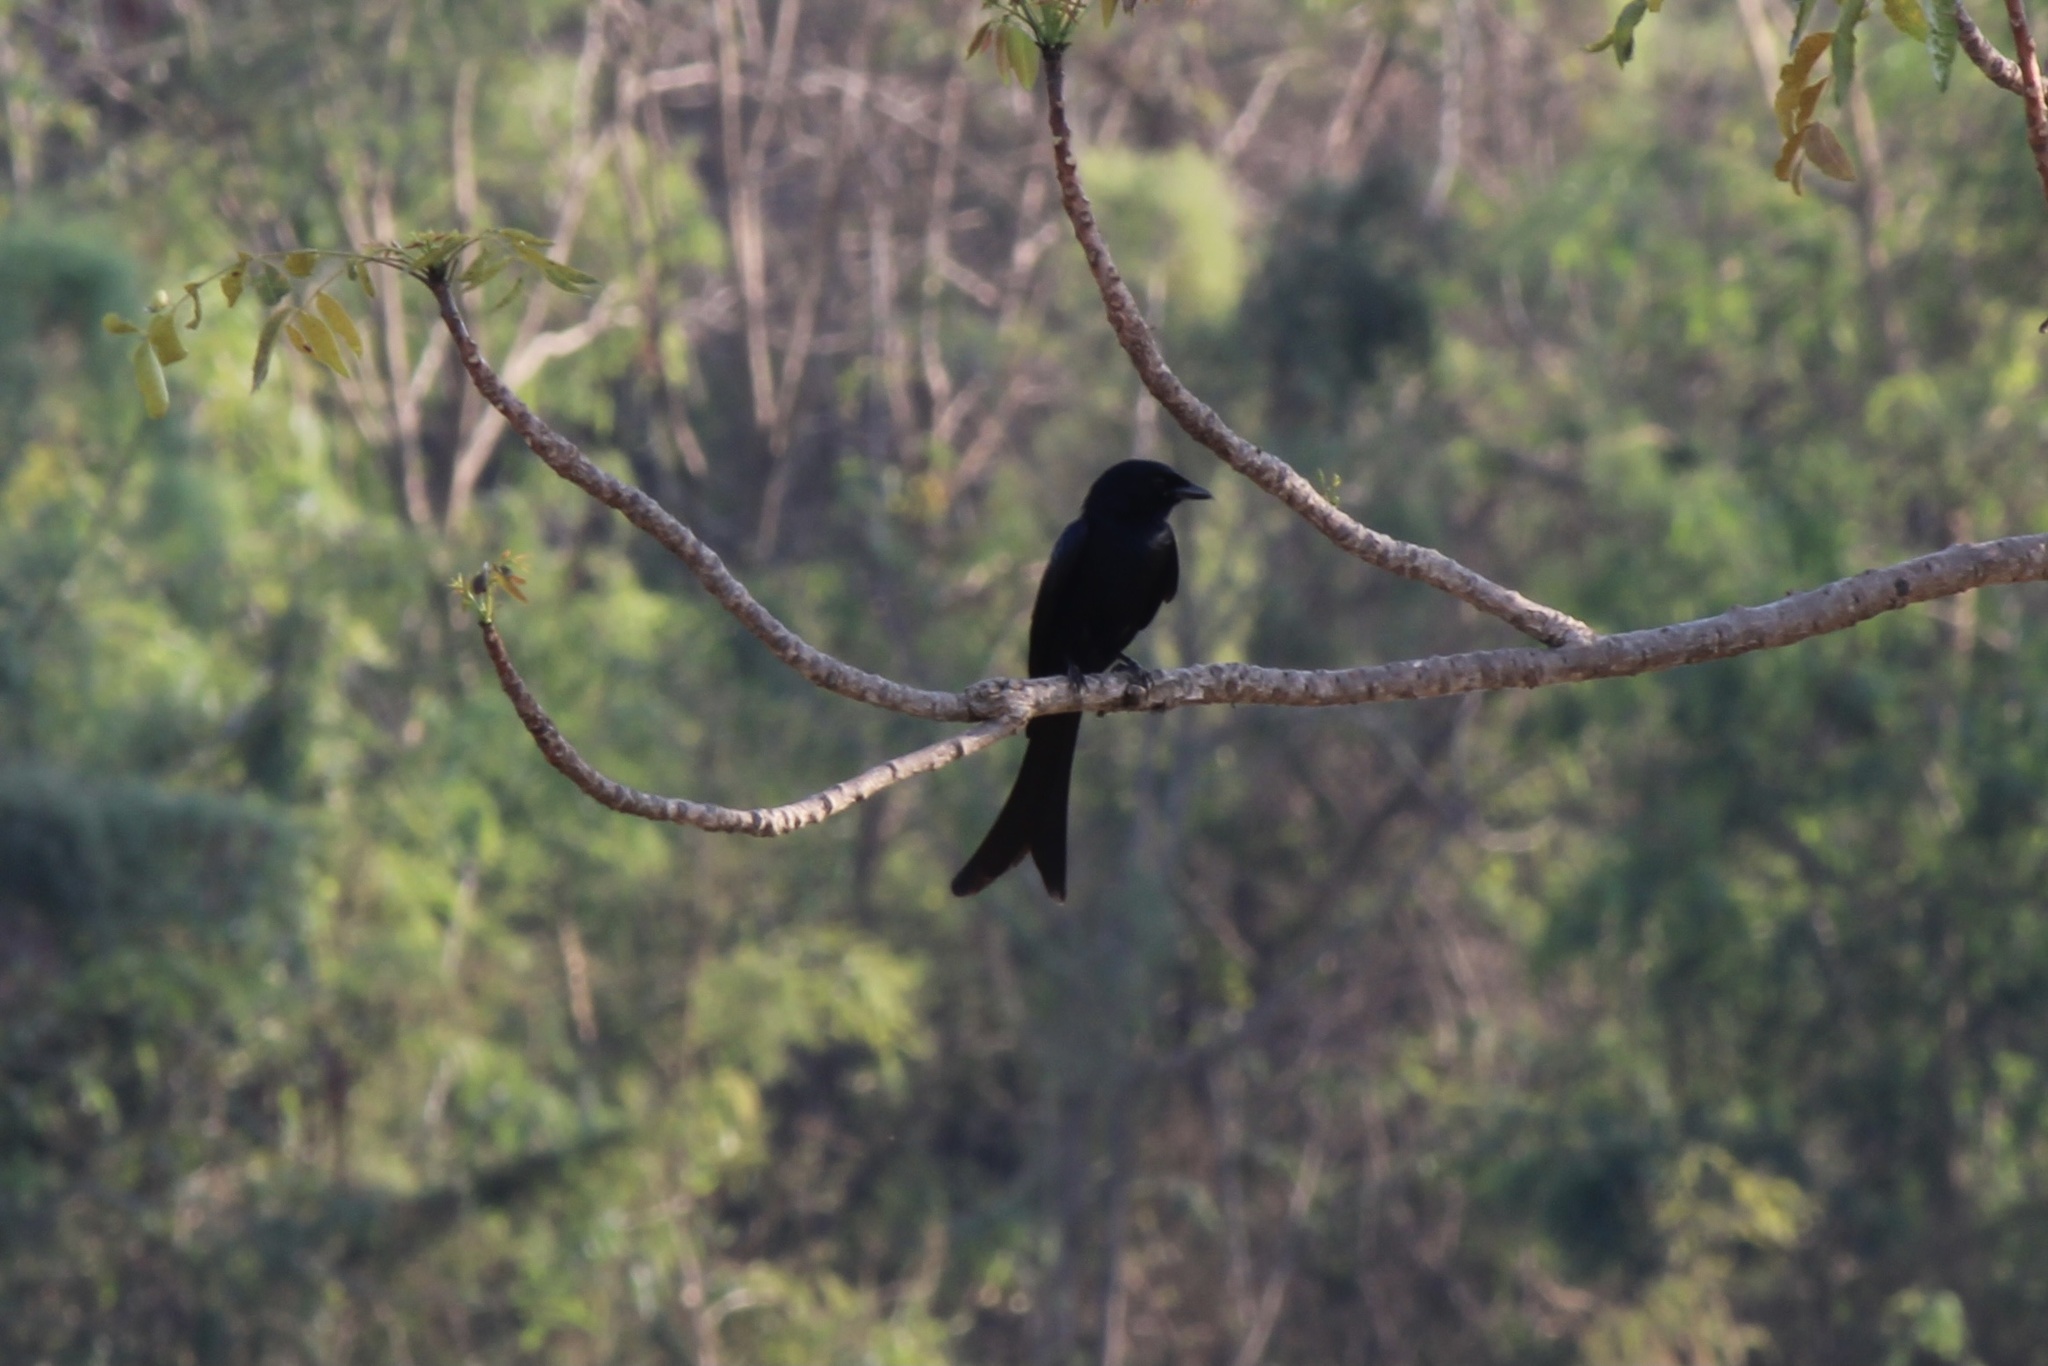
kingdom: Animalia
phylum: Chordata
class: Aves
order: Passeriformes
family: Dicruridae
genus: Dicrurus
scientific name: Dicrurus macrocercus
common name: Black drongo
